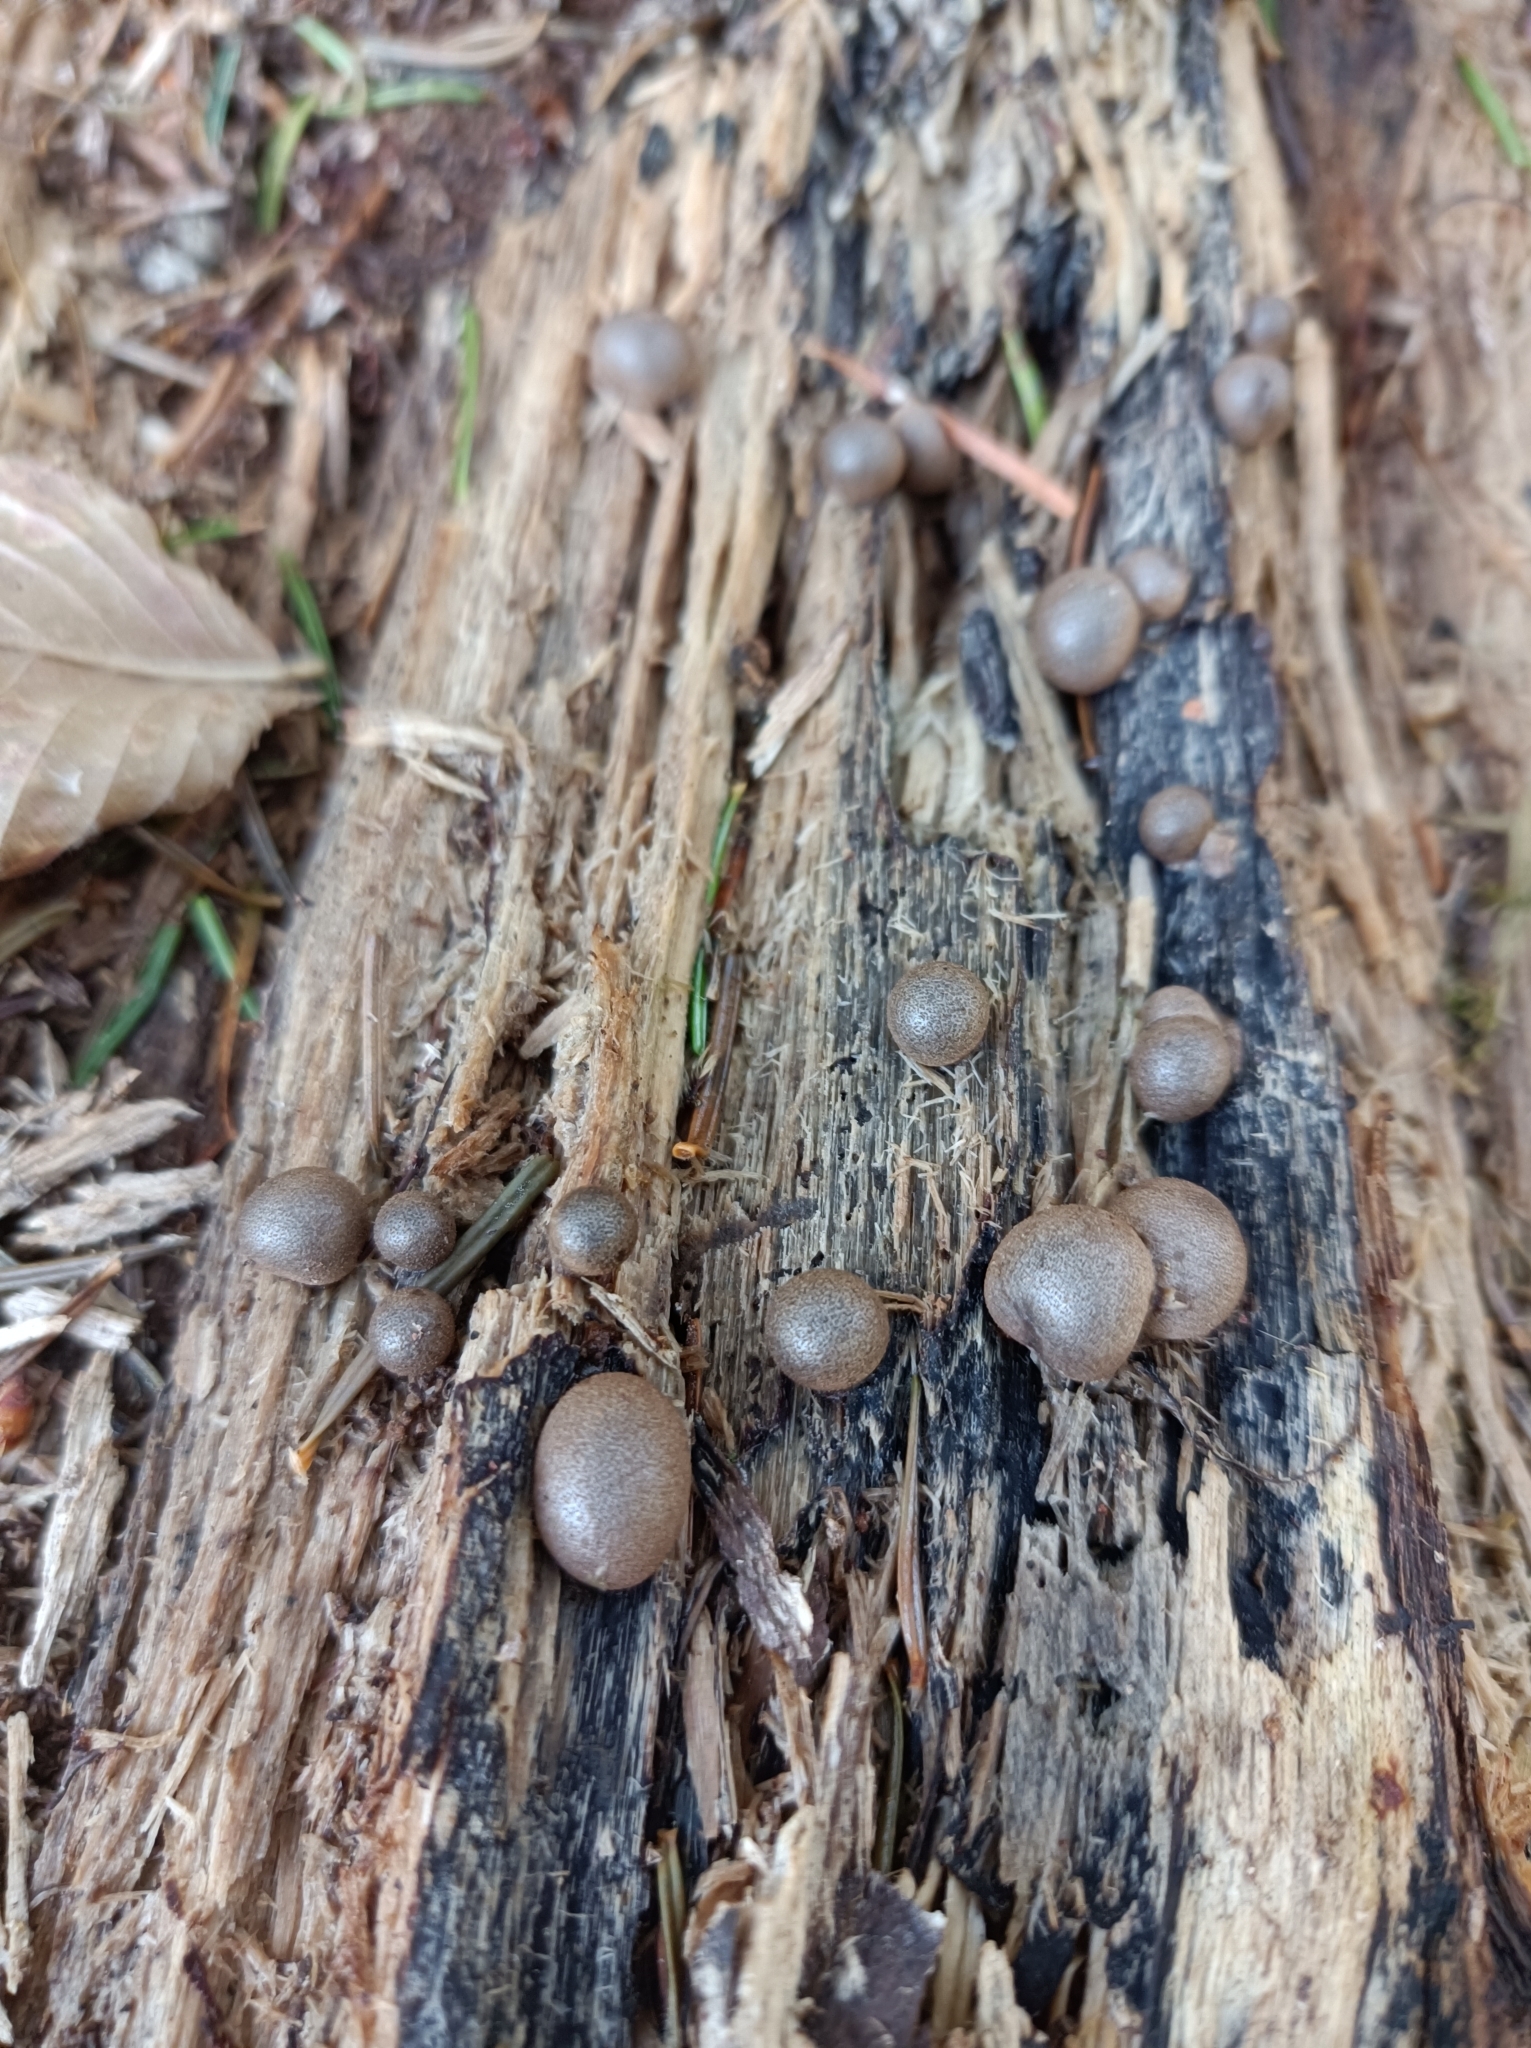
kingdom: Protozoa
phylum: Mycetozoa
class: Myxomycetes
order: Cribrariales
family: Tubiferaceae
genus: Lycogala
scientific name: Lycogala epidendrum
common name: Wolf's milk
